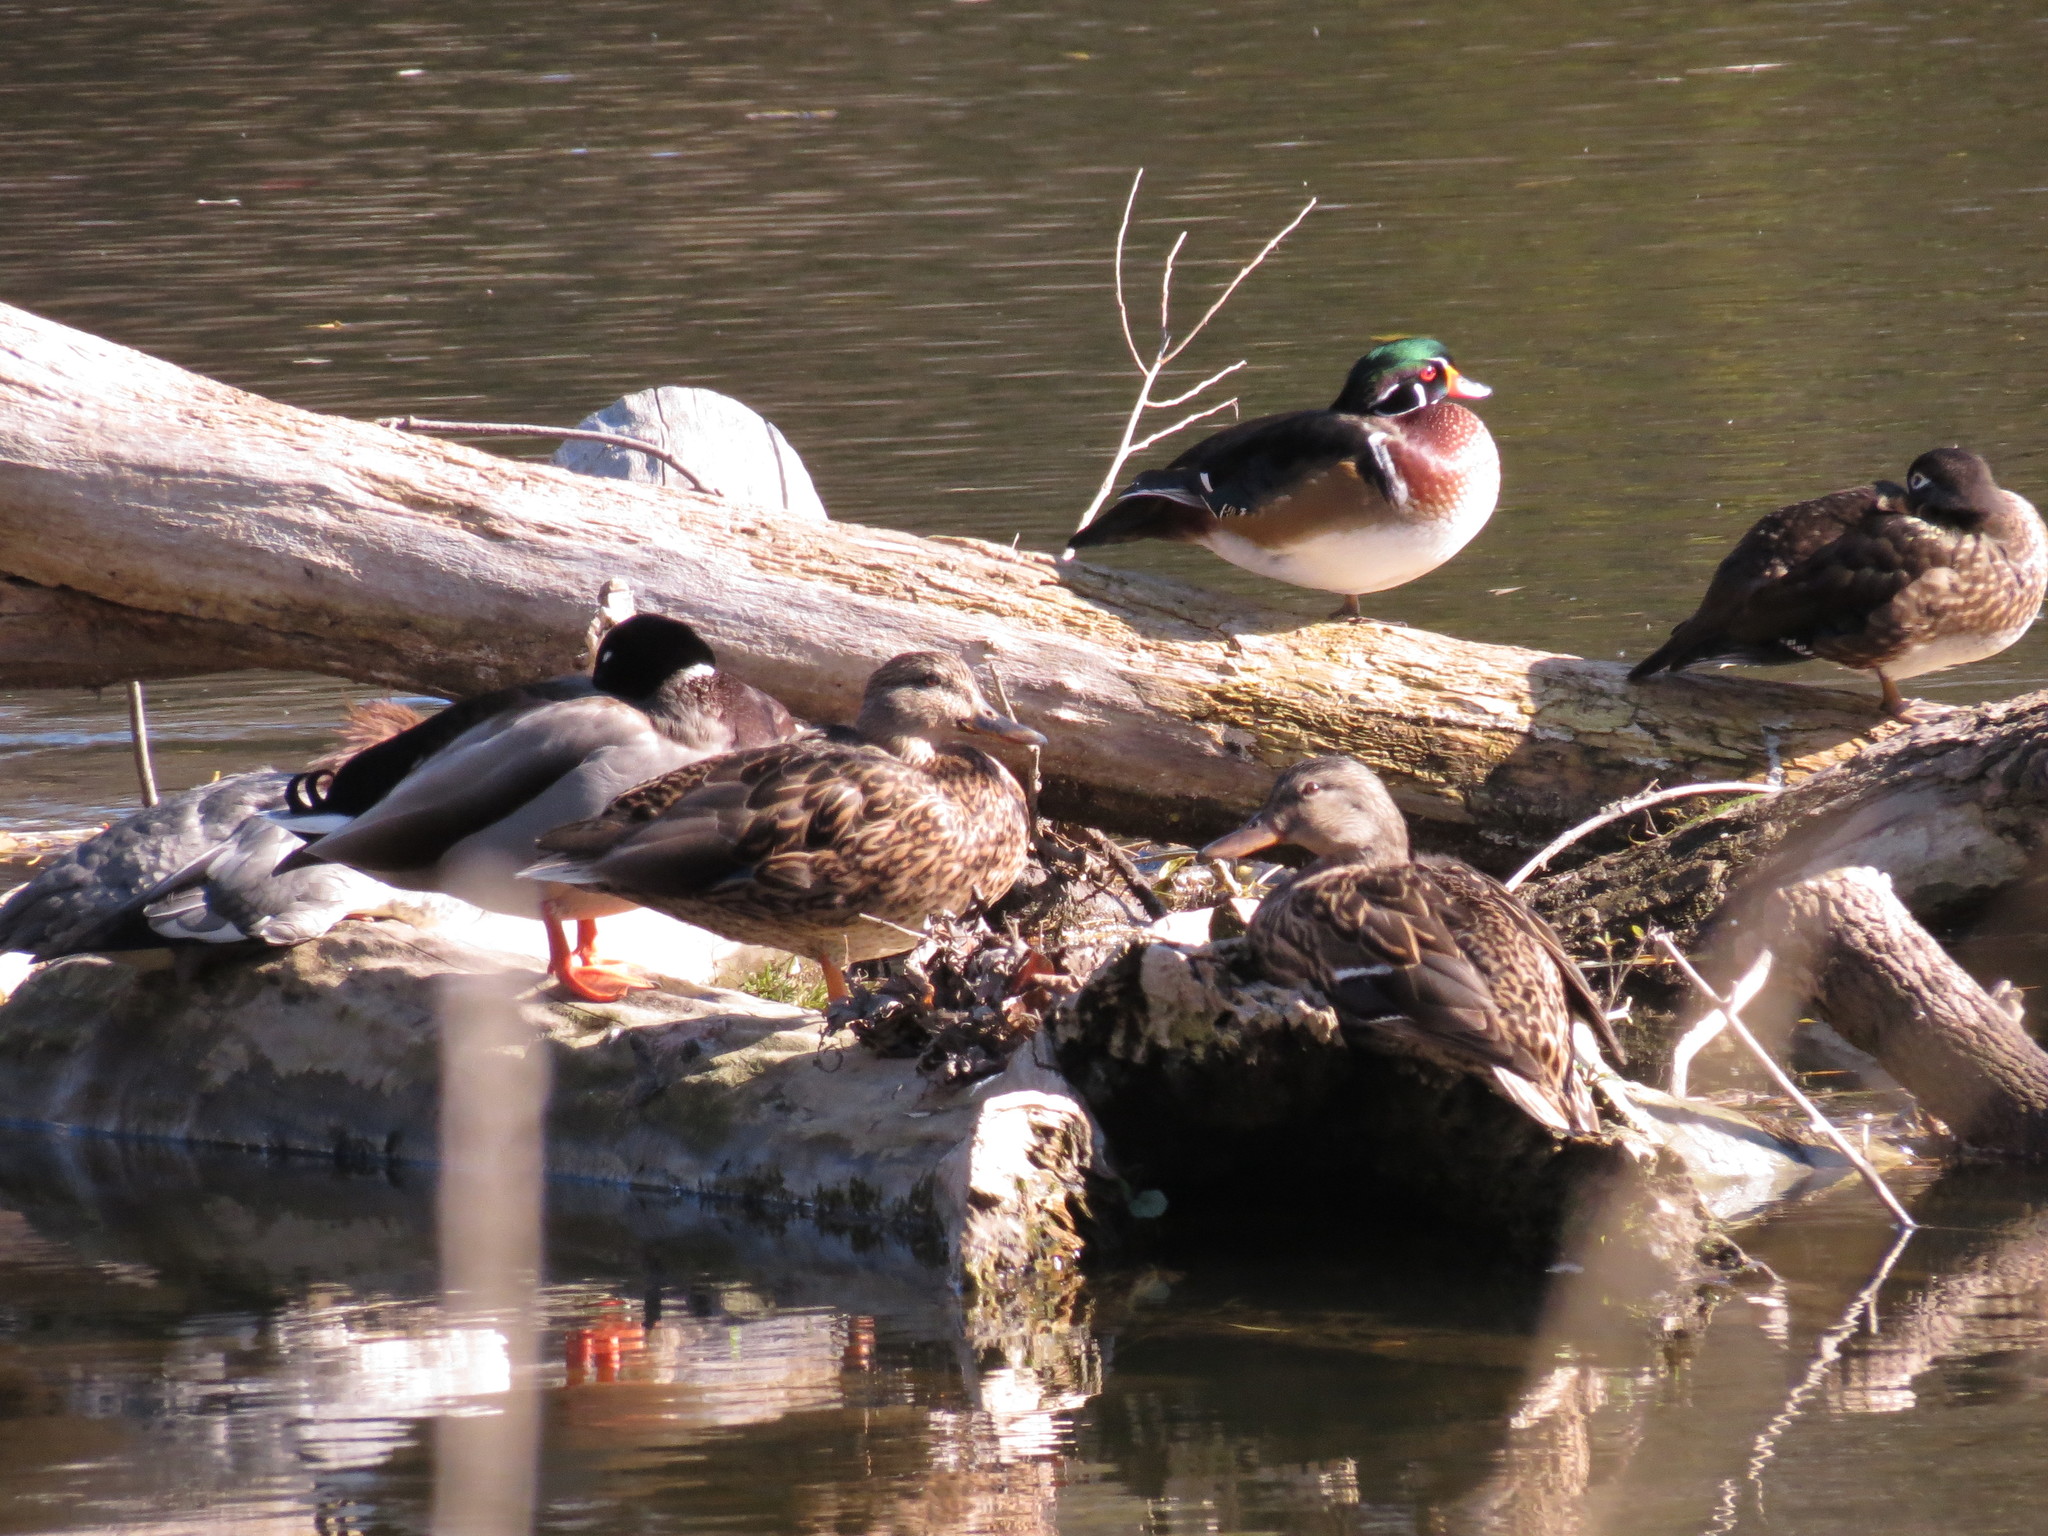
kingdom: Animalia
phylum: Chordata
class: Aves
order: Anseriformes
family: Anatidae
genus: Anas
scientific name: Anas platyrhynchos
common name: Mallard
